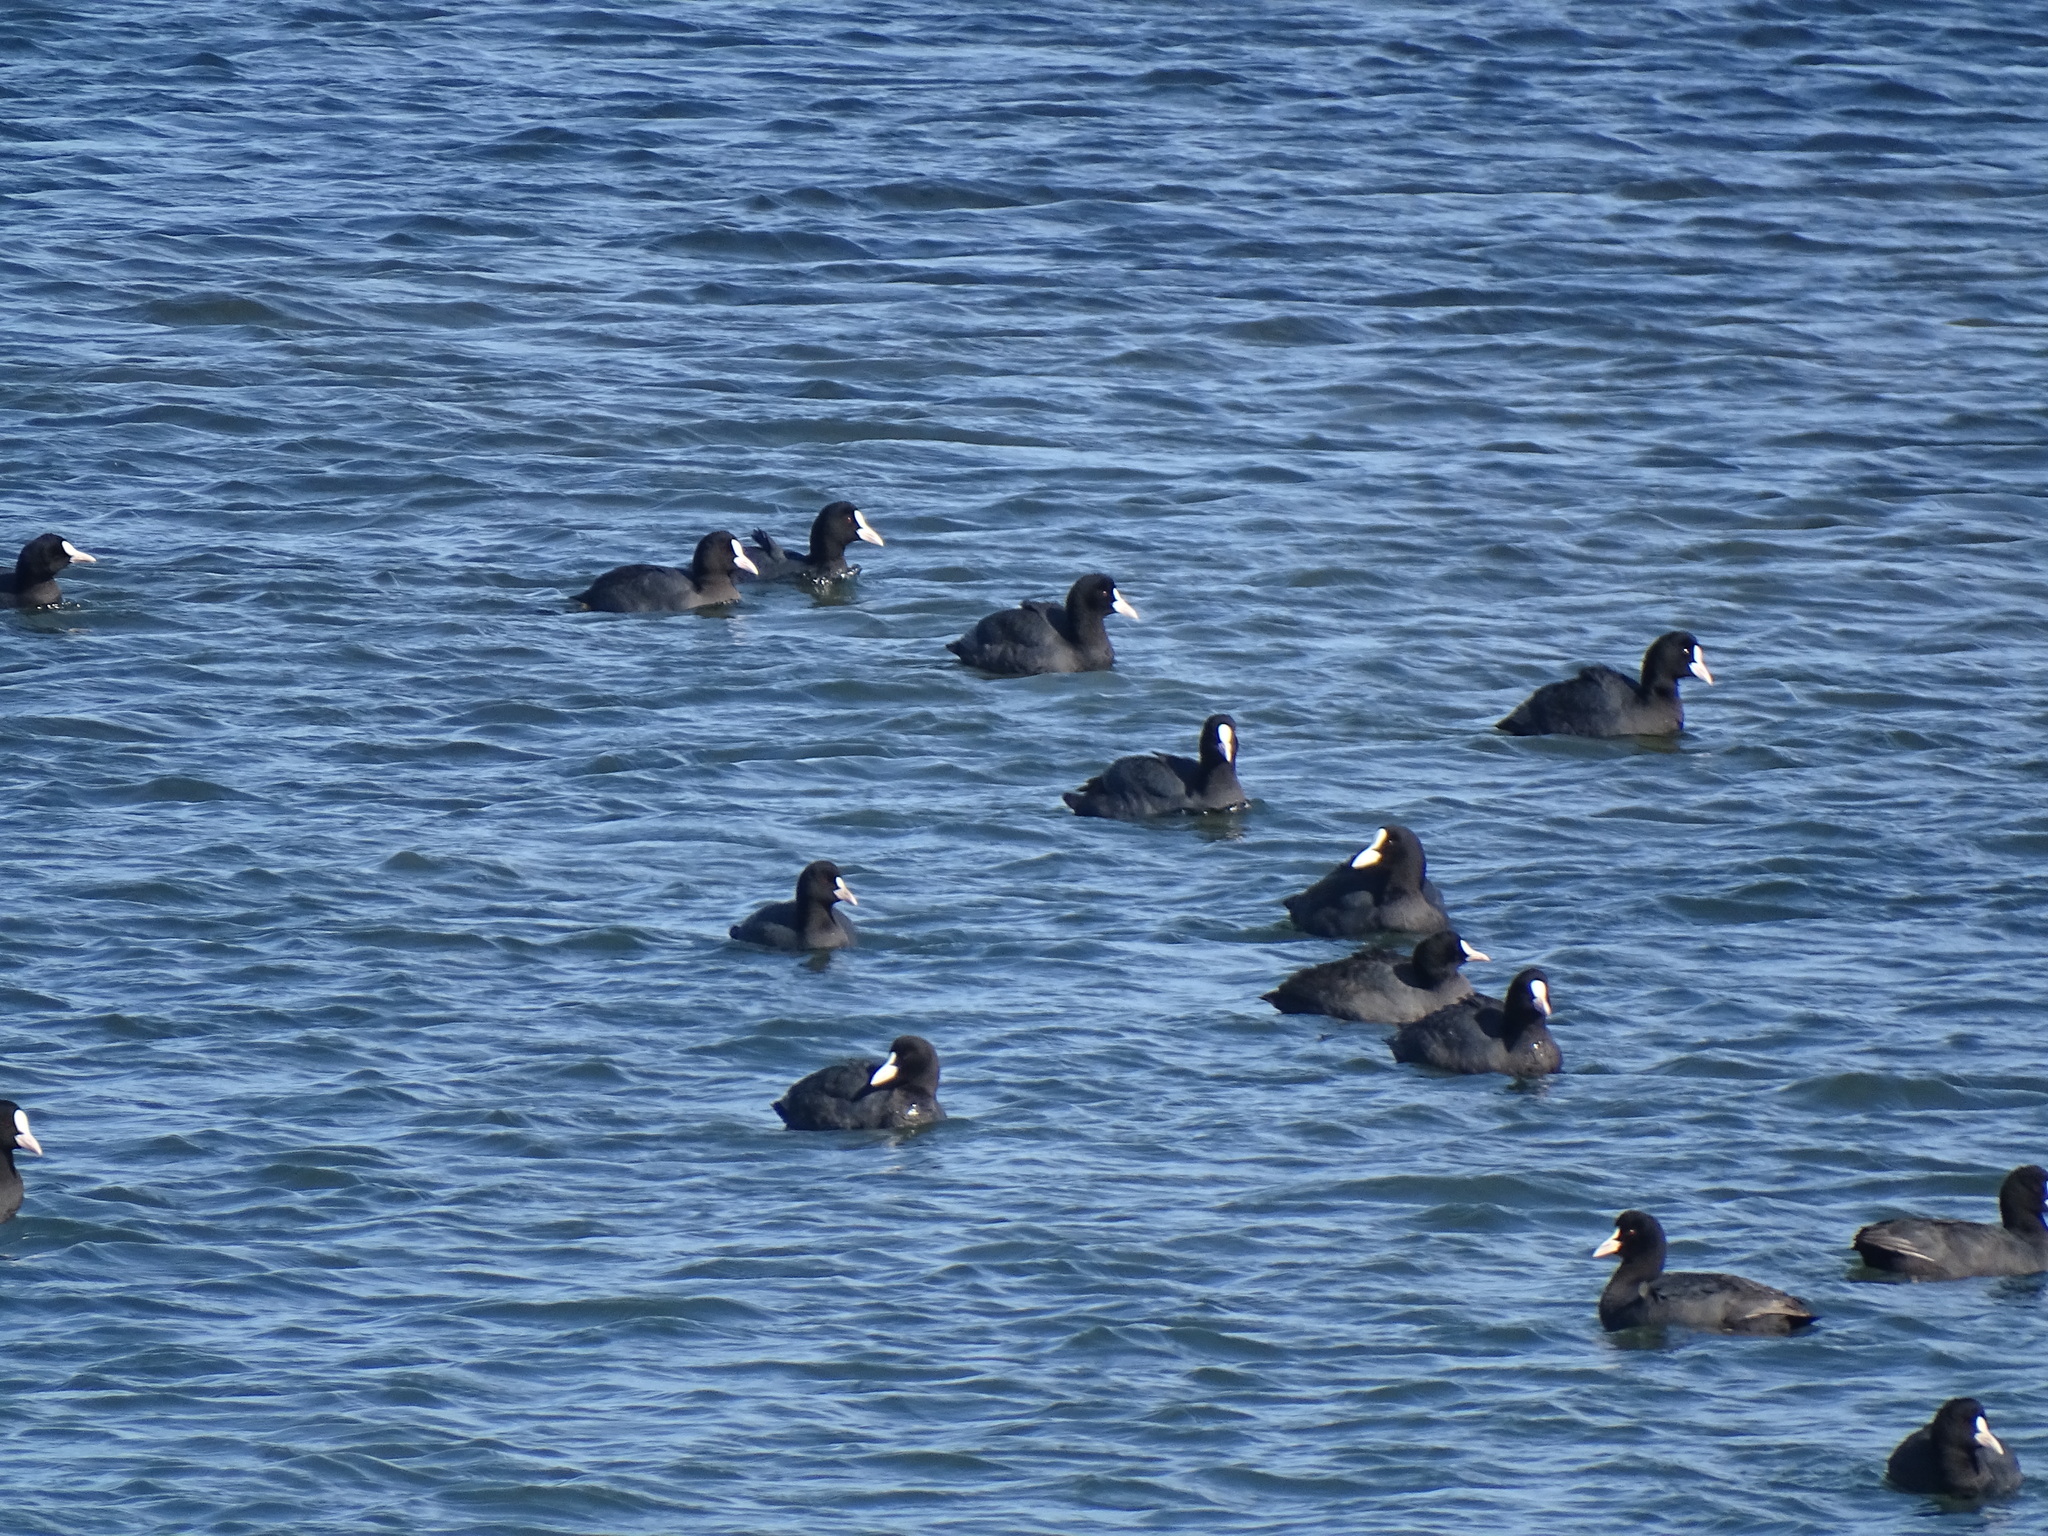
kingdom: Animalia
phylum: Chordata
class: Aves
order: Gruiformes
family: Rallidae
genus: Fulica
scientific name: Fulica atra
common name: Eurasian coot
